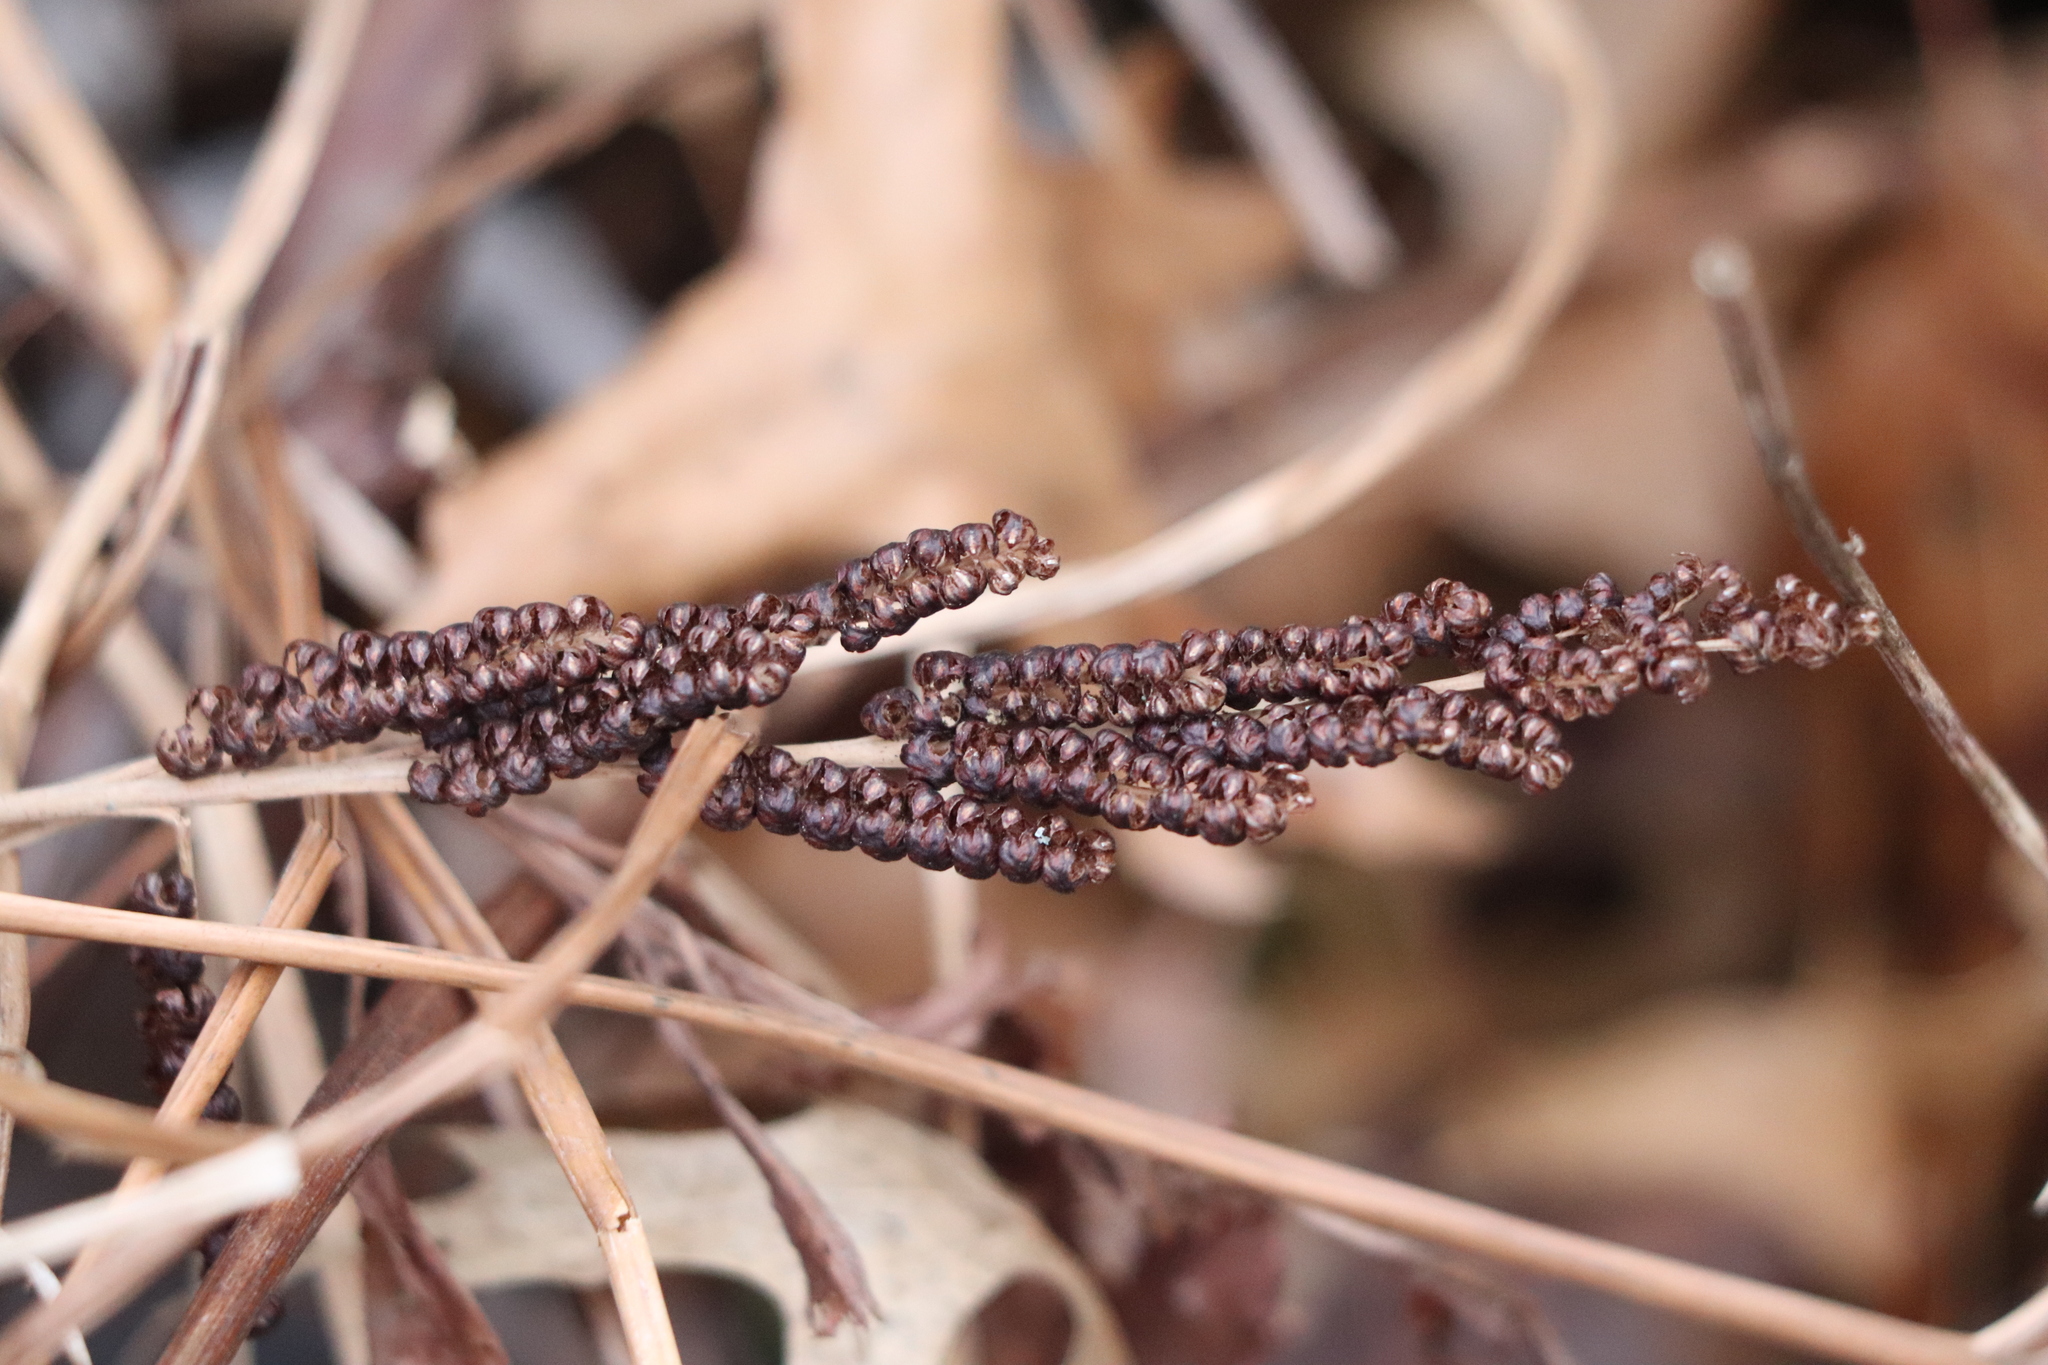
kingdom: Plantae
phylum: Tracheophyta
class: Polypodiopsida
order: Polypodiales
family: Onocleaceae
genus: Onoclea
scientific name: Onoclea sensibilis
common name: Sensitive fern
